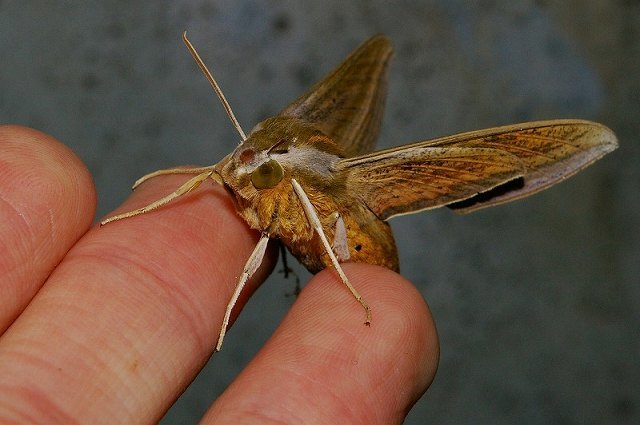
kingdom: Animalia
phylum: Arthropoda
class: Insecta
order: Lepidoptera
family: Sphingidae
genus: Theretra
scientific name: Theretra japonica
